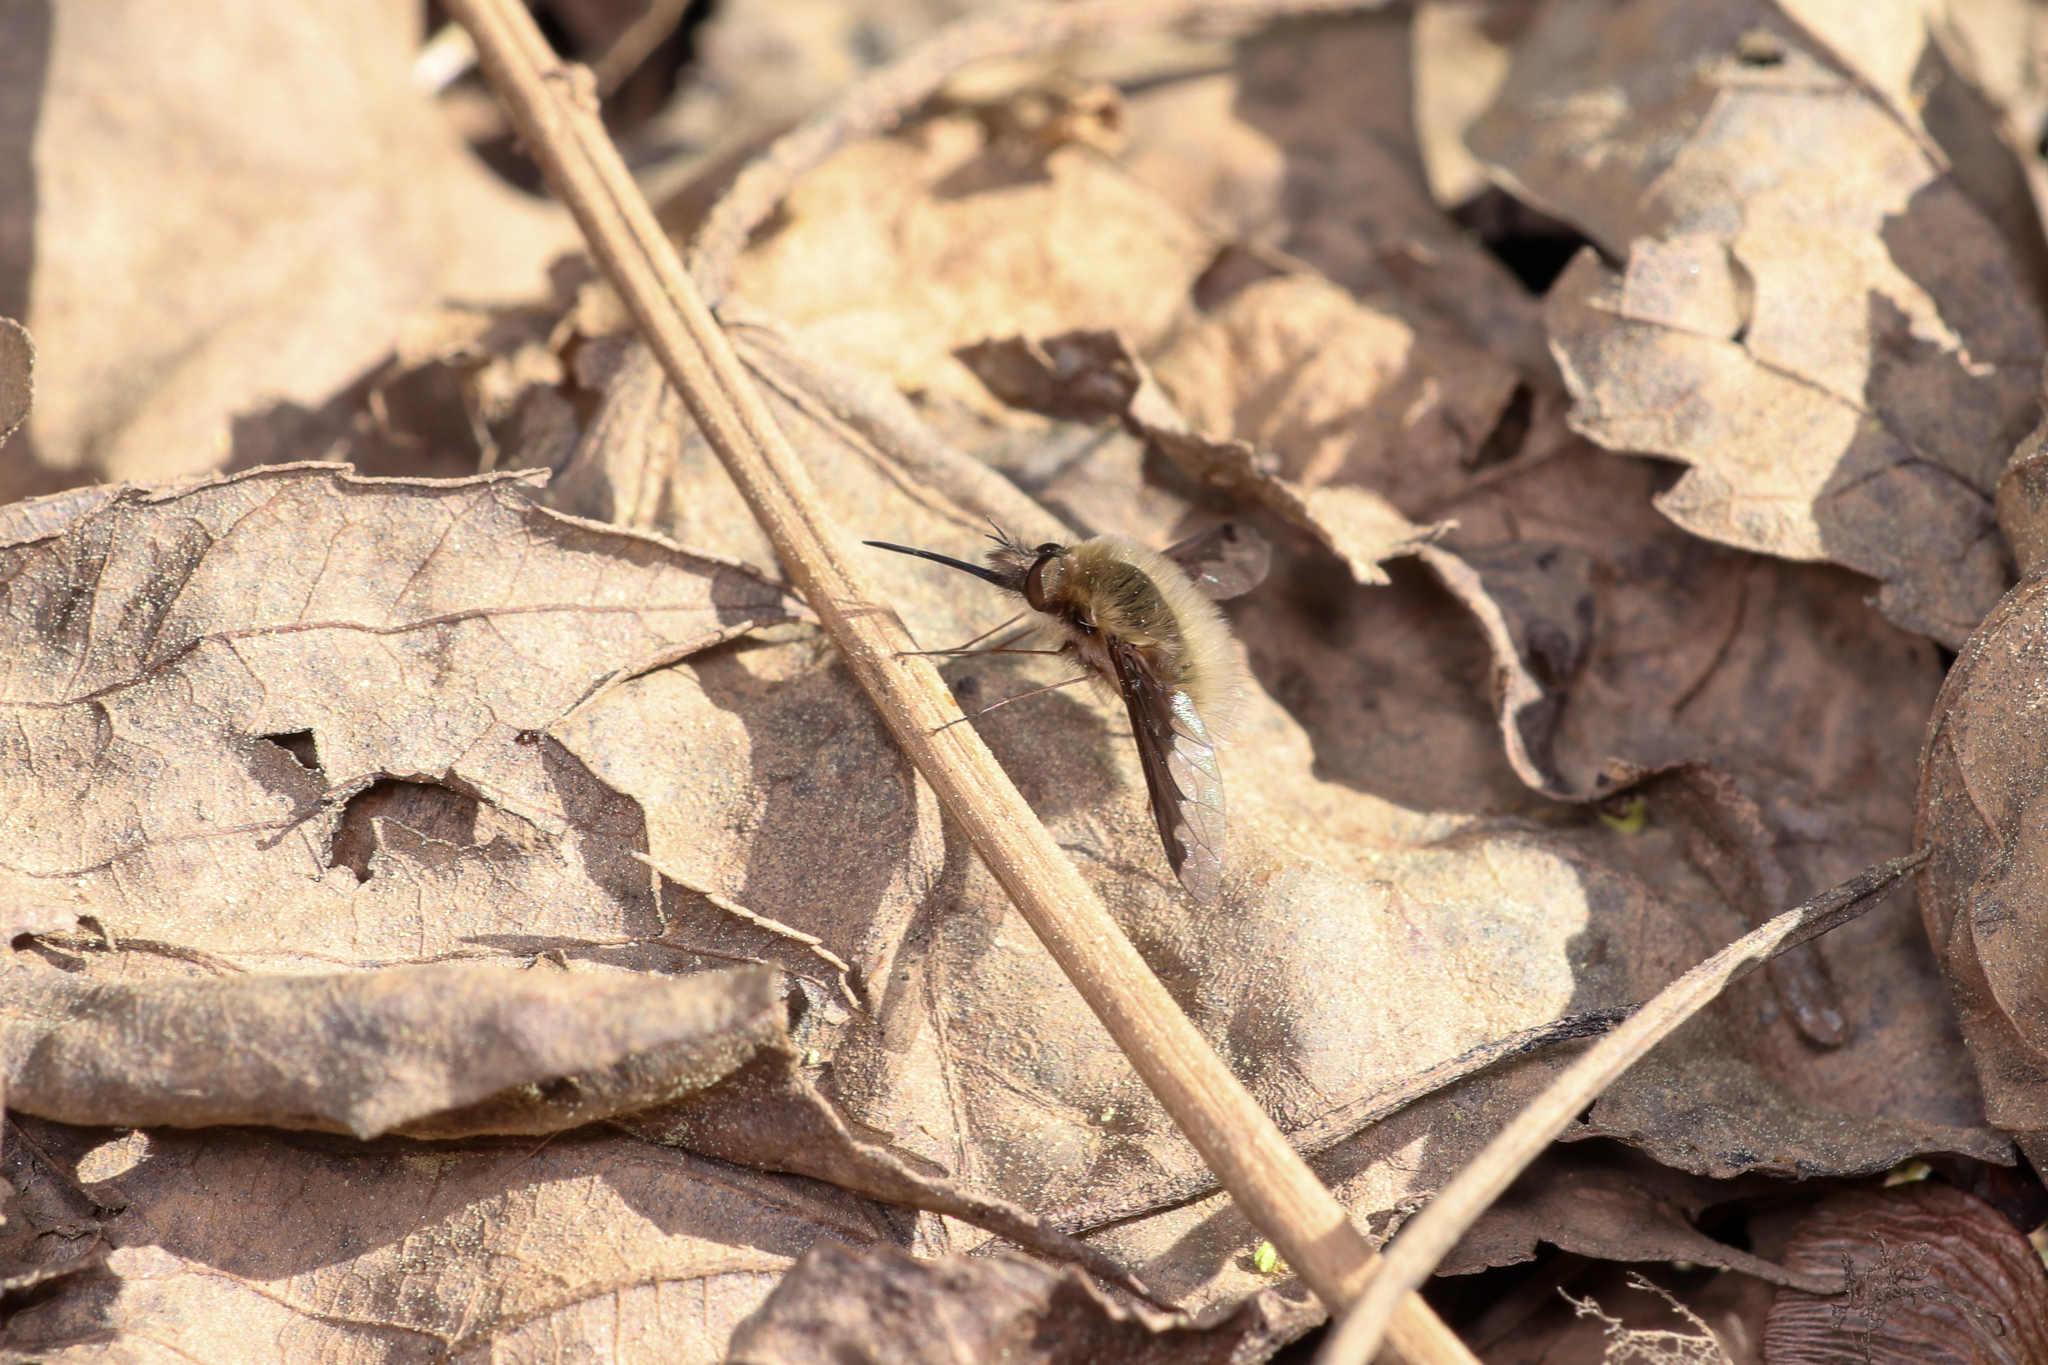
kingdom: Animalia
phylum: Arthropoda
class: Insecta
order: Diptera
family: Bombyliidae
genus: Bombylius
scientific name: Bombylius major
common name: Bee fly
